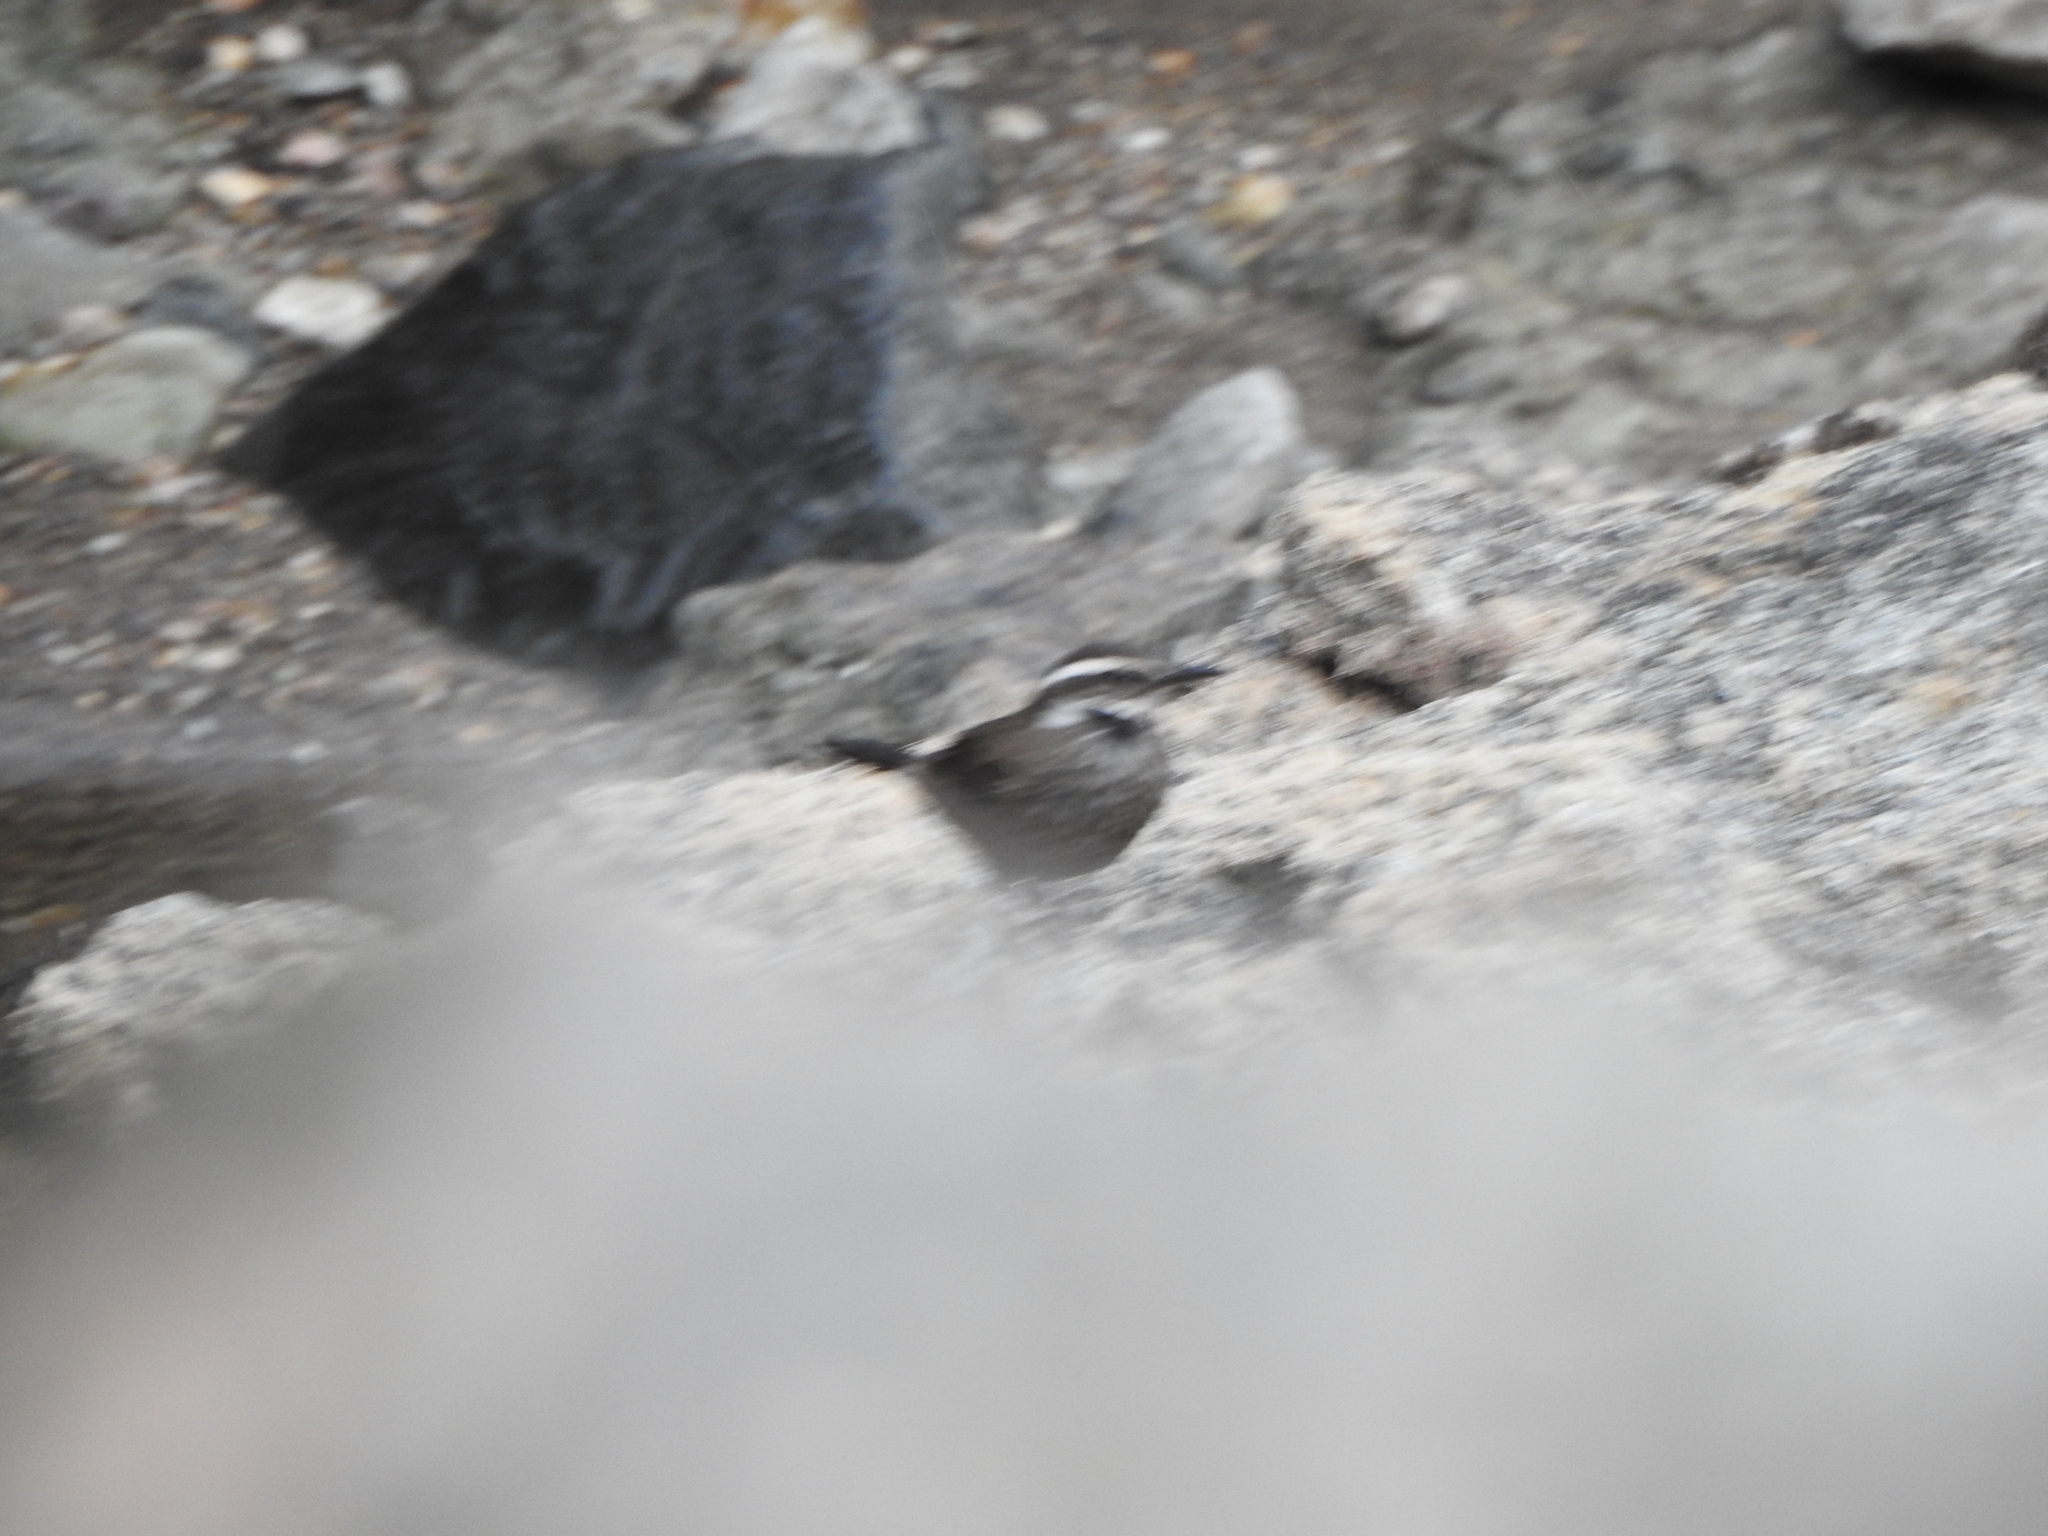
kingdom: Animalia
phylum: Chordata
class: Aves
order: Passeriformes
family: Furnariidae
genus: Cinclodes
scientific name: Cinclodes patagonicus
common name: Dark-bellied cinclodes
